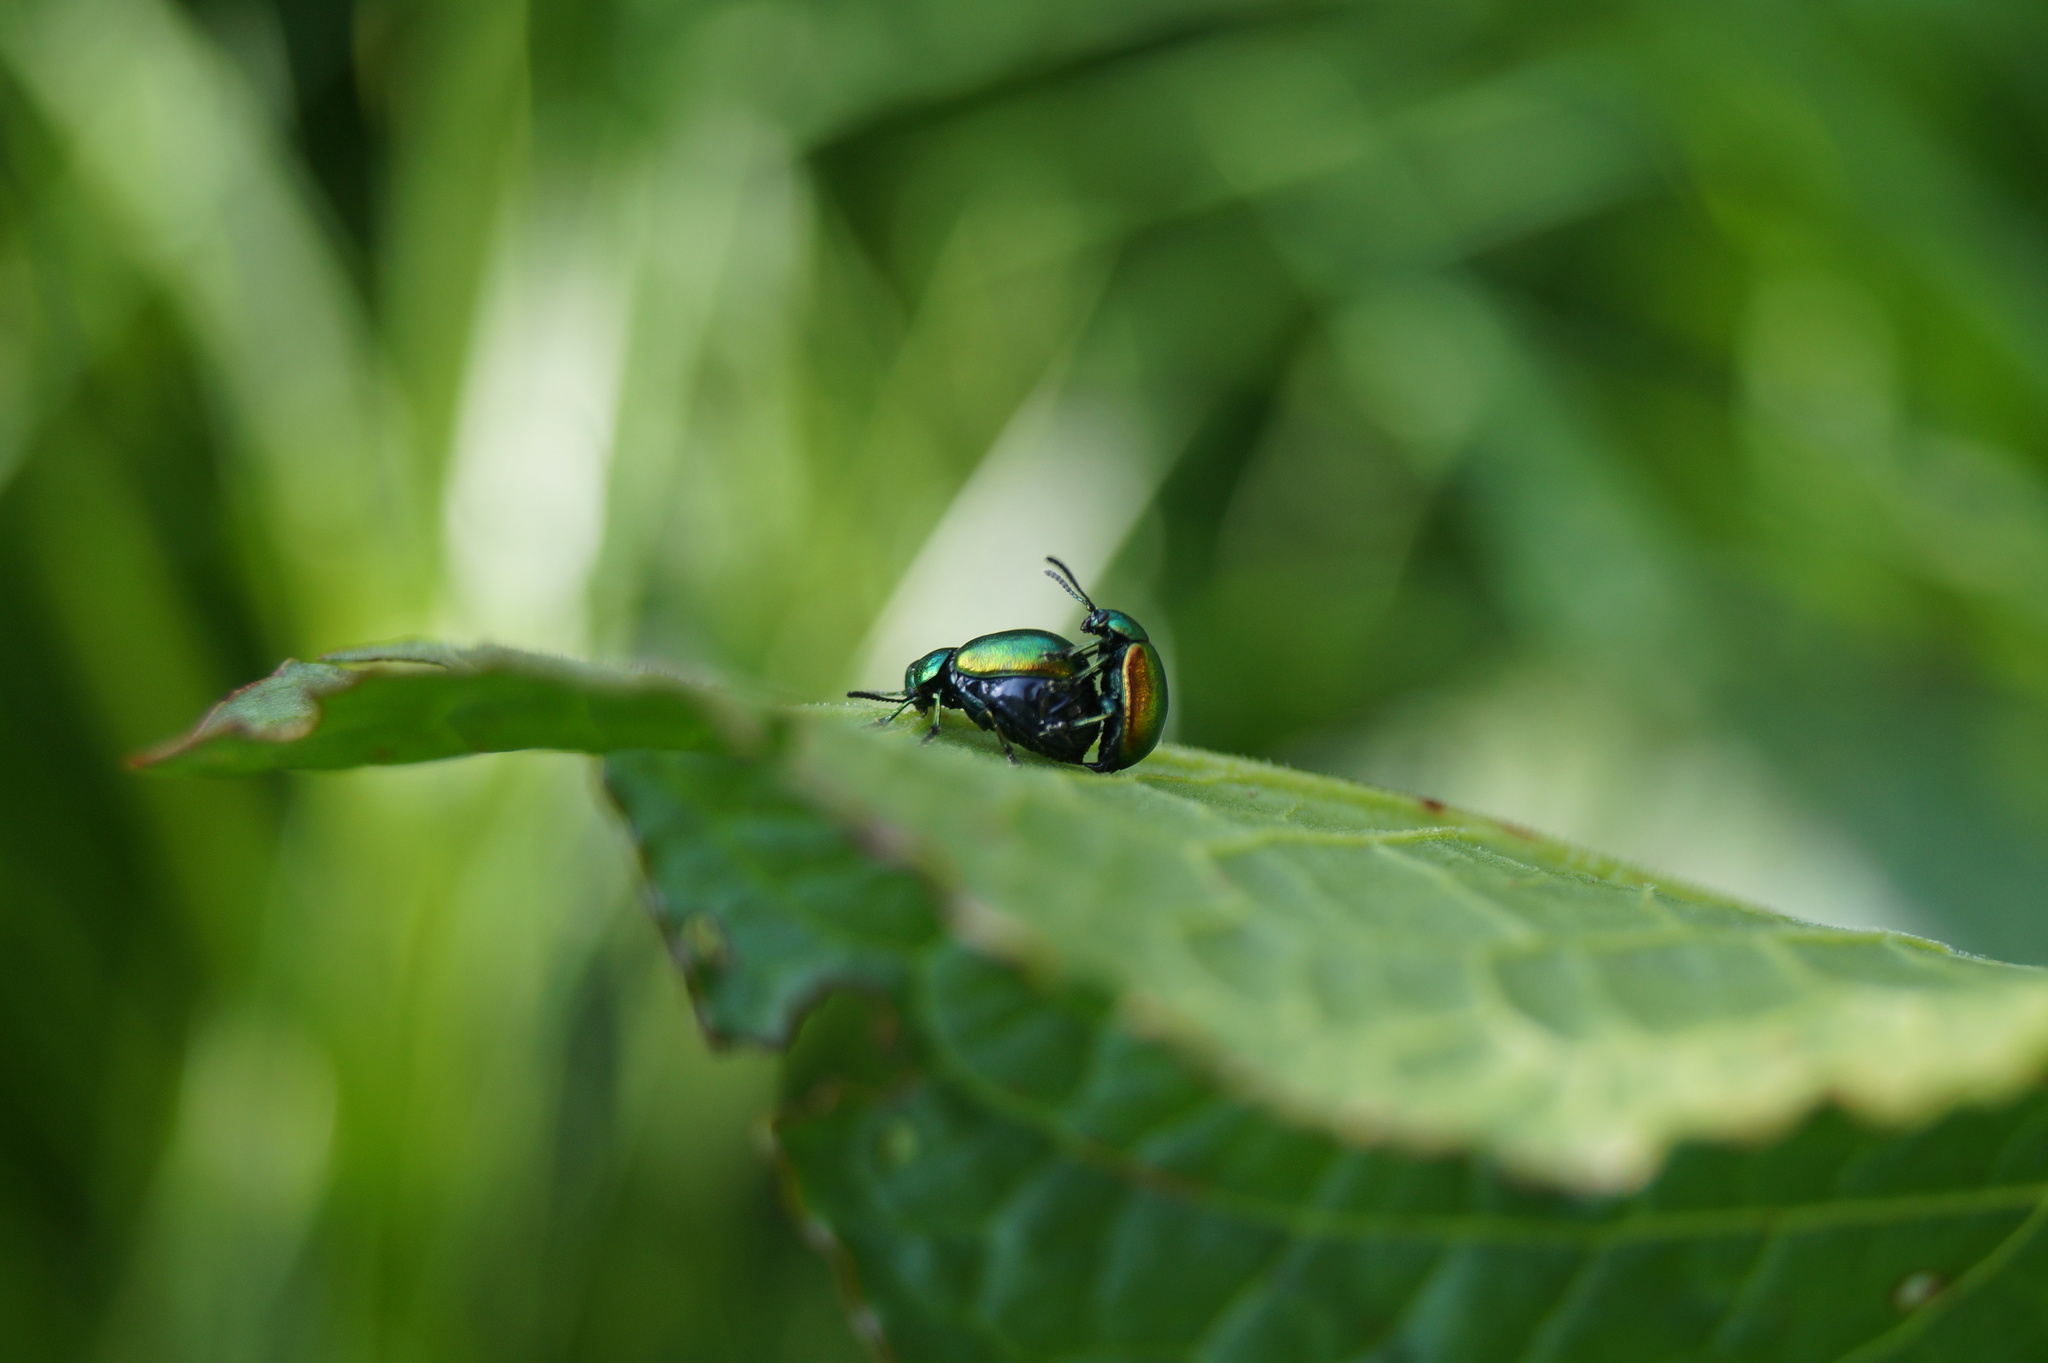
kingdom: Animalia
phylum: Arthropoda
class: Insecta
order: Coleoptera
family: Chrysomelidae
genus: Gastrophysa
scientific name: Gastrophysa viridula
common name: Green dock beetle
